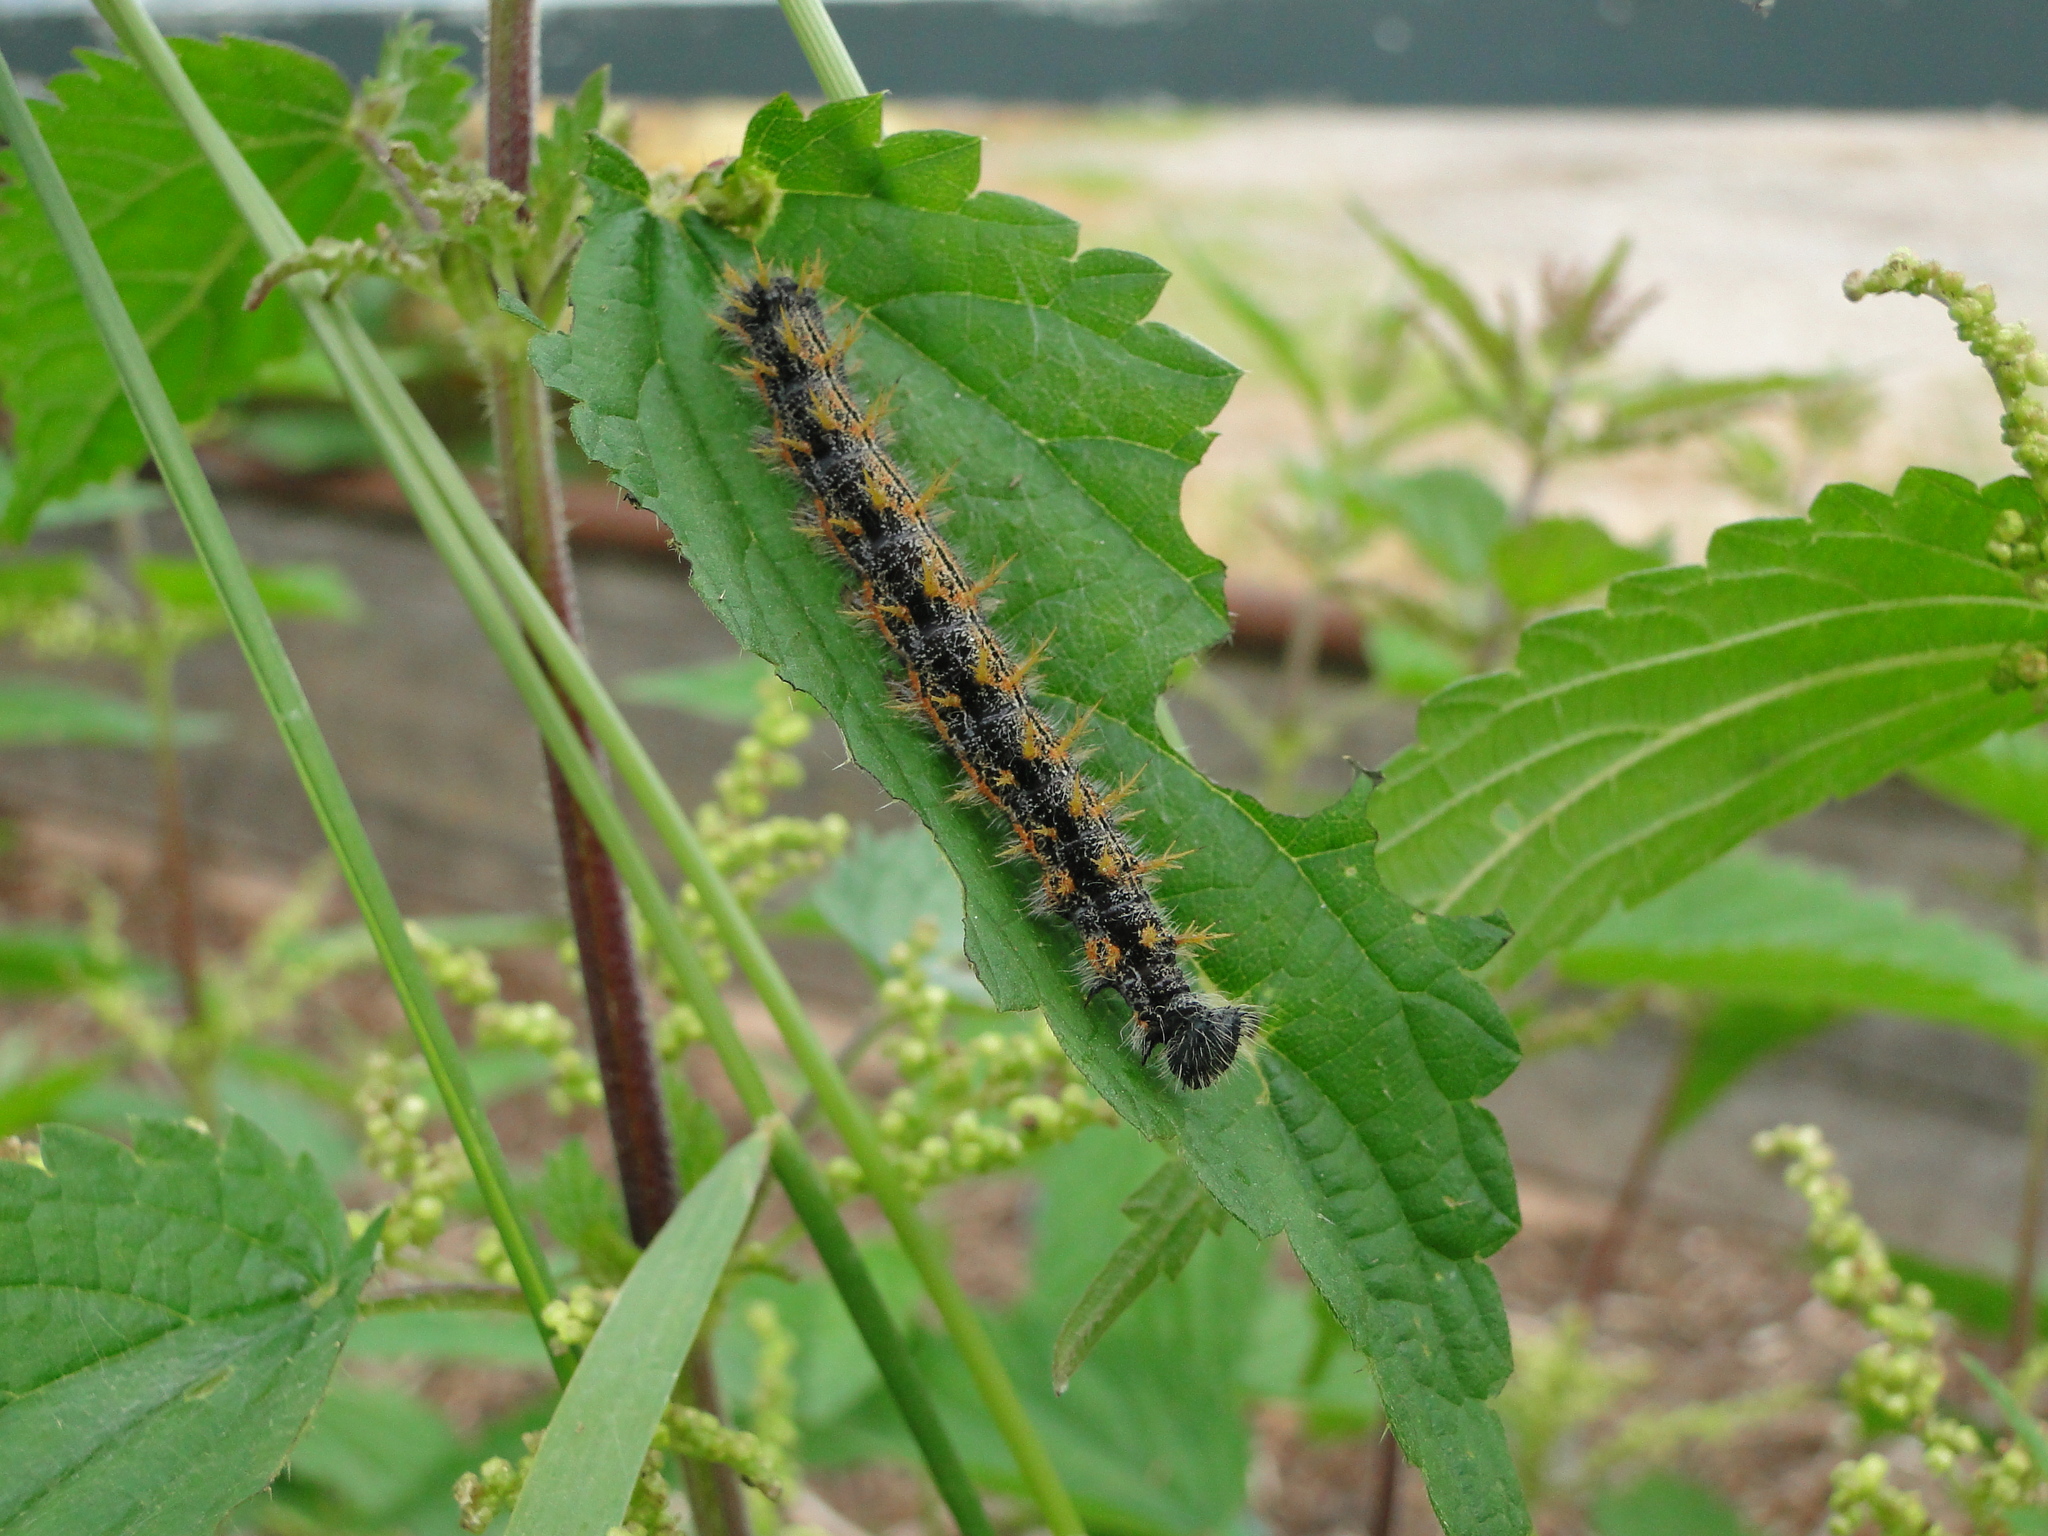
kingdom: Animalia
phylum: Arthropoda
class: Insecta
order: Lepidoptera
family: Nymphalidae
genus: Nymphalis
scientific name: Nymphalis polychloros
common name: Large tortoiseshell
